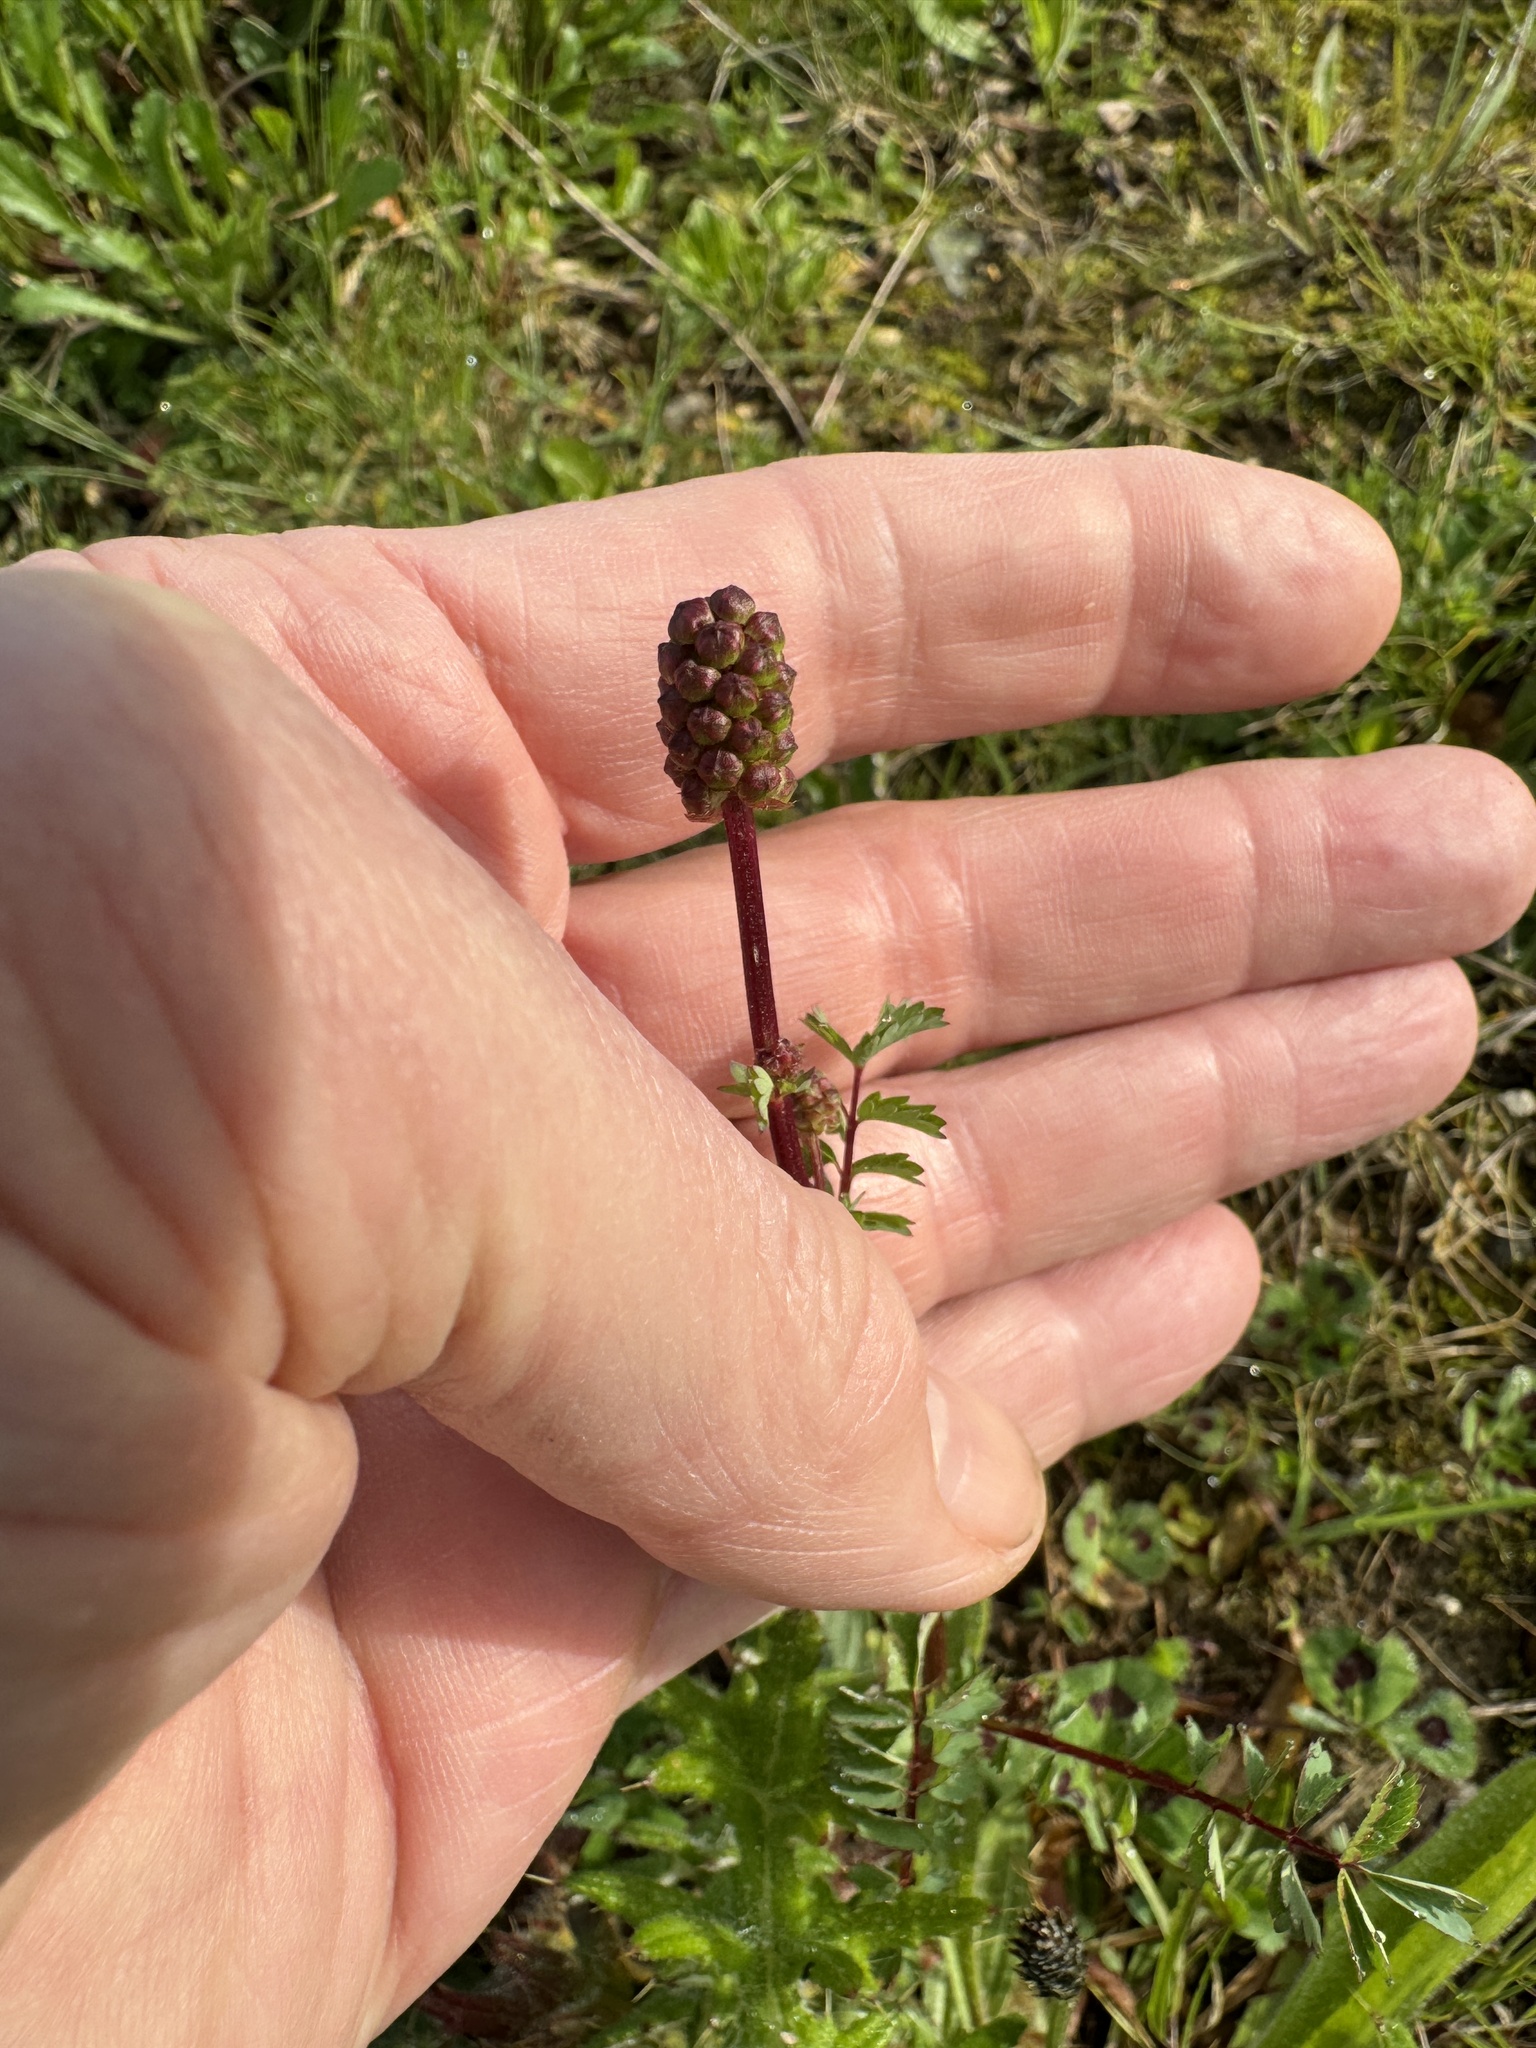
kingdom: Plantae
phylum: Tracheophyta
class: Magnoliopsida
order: Rosales
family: Rosaceae
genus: Poterium
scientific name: Poterium sanguisorba
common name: Salad burnet
